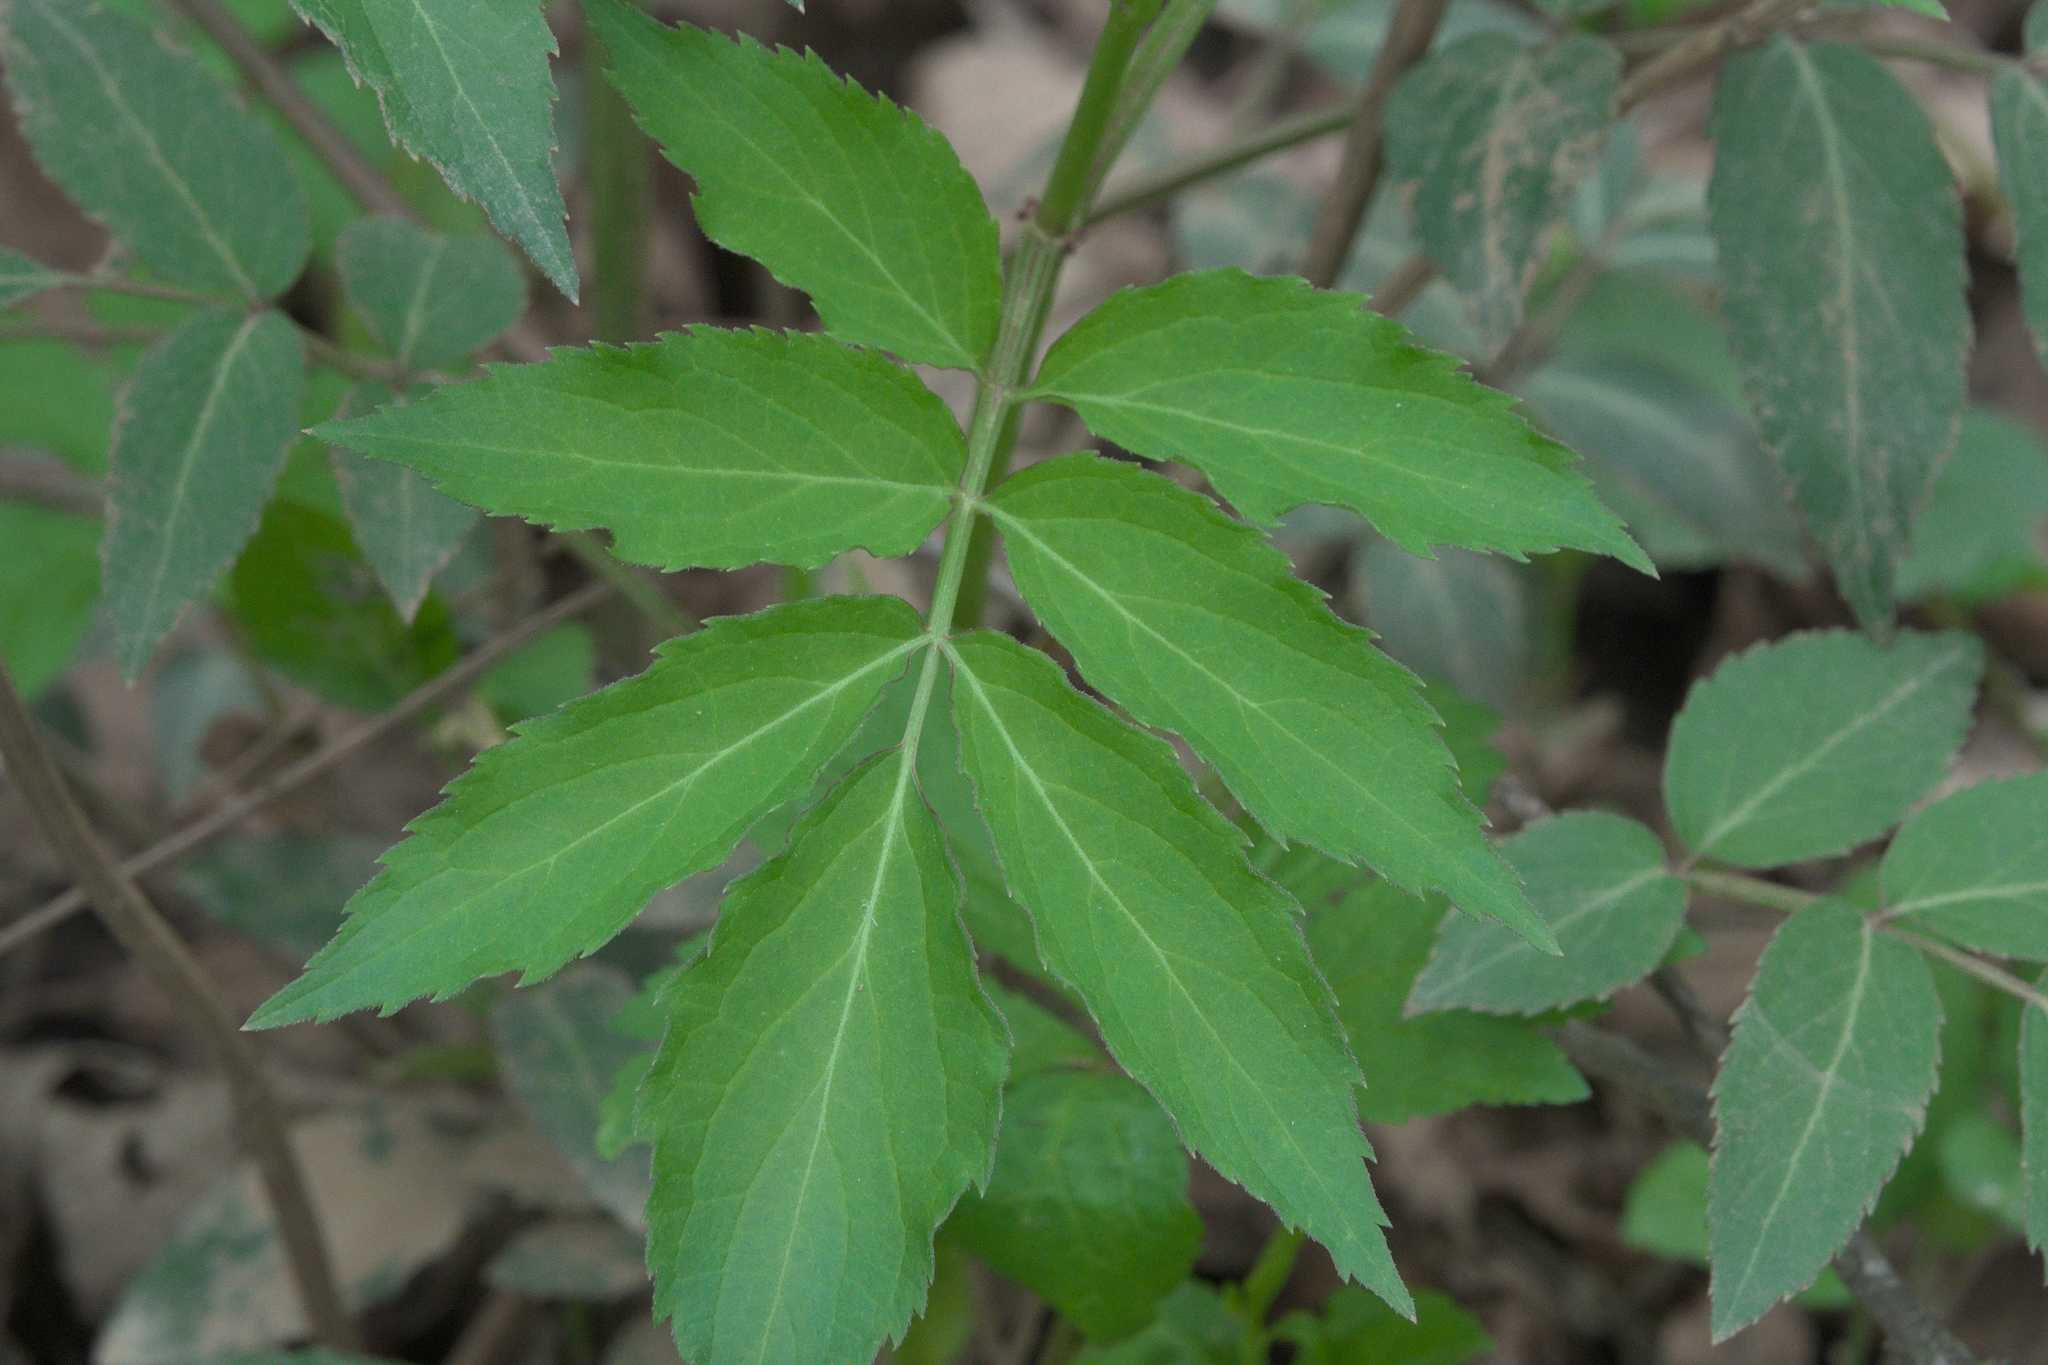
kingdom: Plantae
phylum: Tracheophyta
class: Magnoliopsida
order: Dipsacales
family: Viburnaceae
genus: Sambucus
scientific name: Sambucus canadensis
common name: American elder
